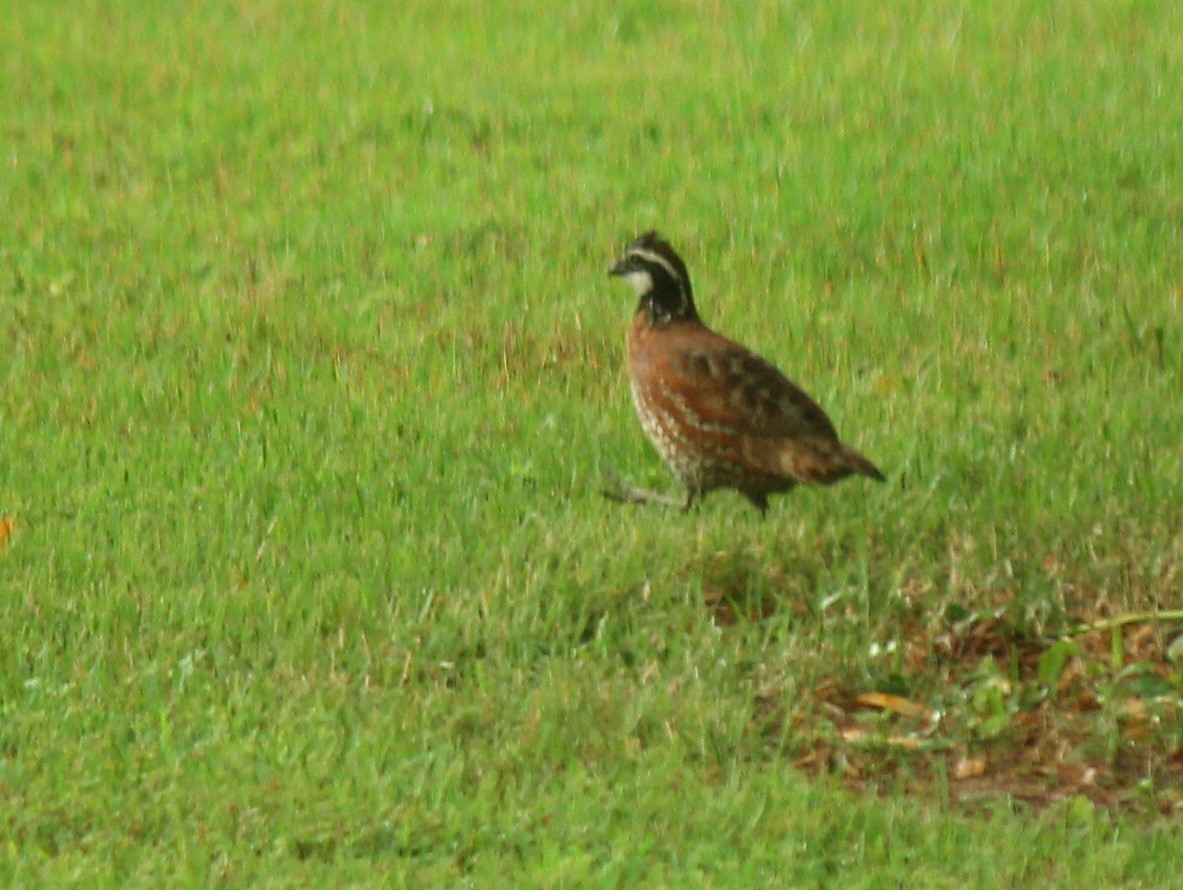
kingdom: Animalia
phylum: Chordata
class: Aves
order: Galliformes
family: Odontophoridae
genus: Colinus
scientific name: Colinus virginianus
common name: Northern bobwhite
